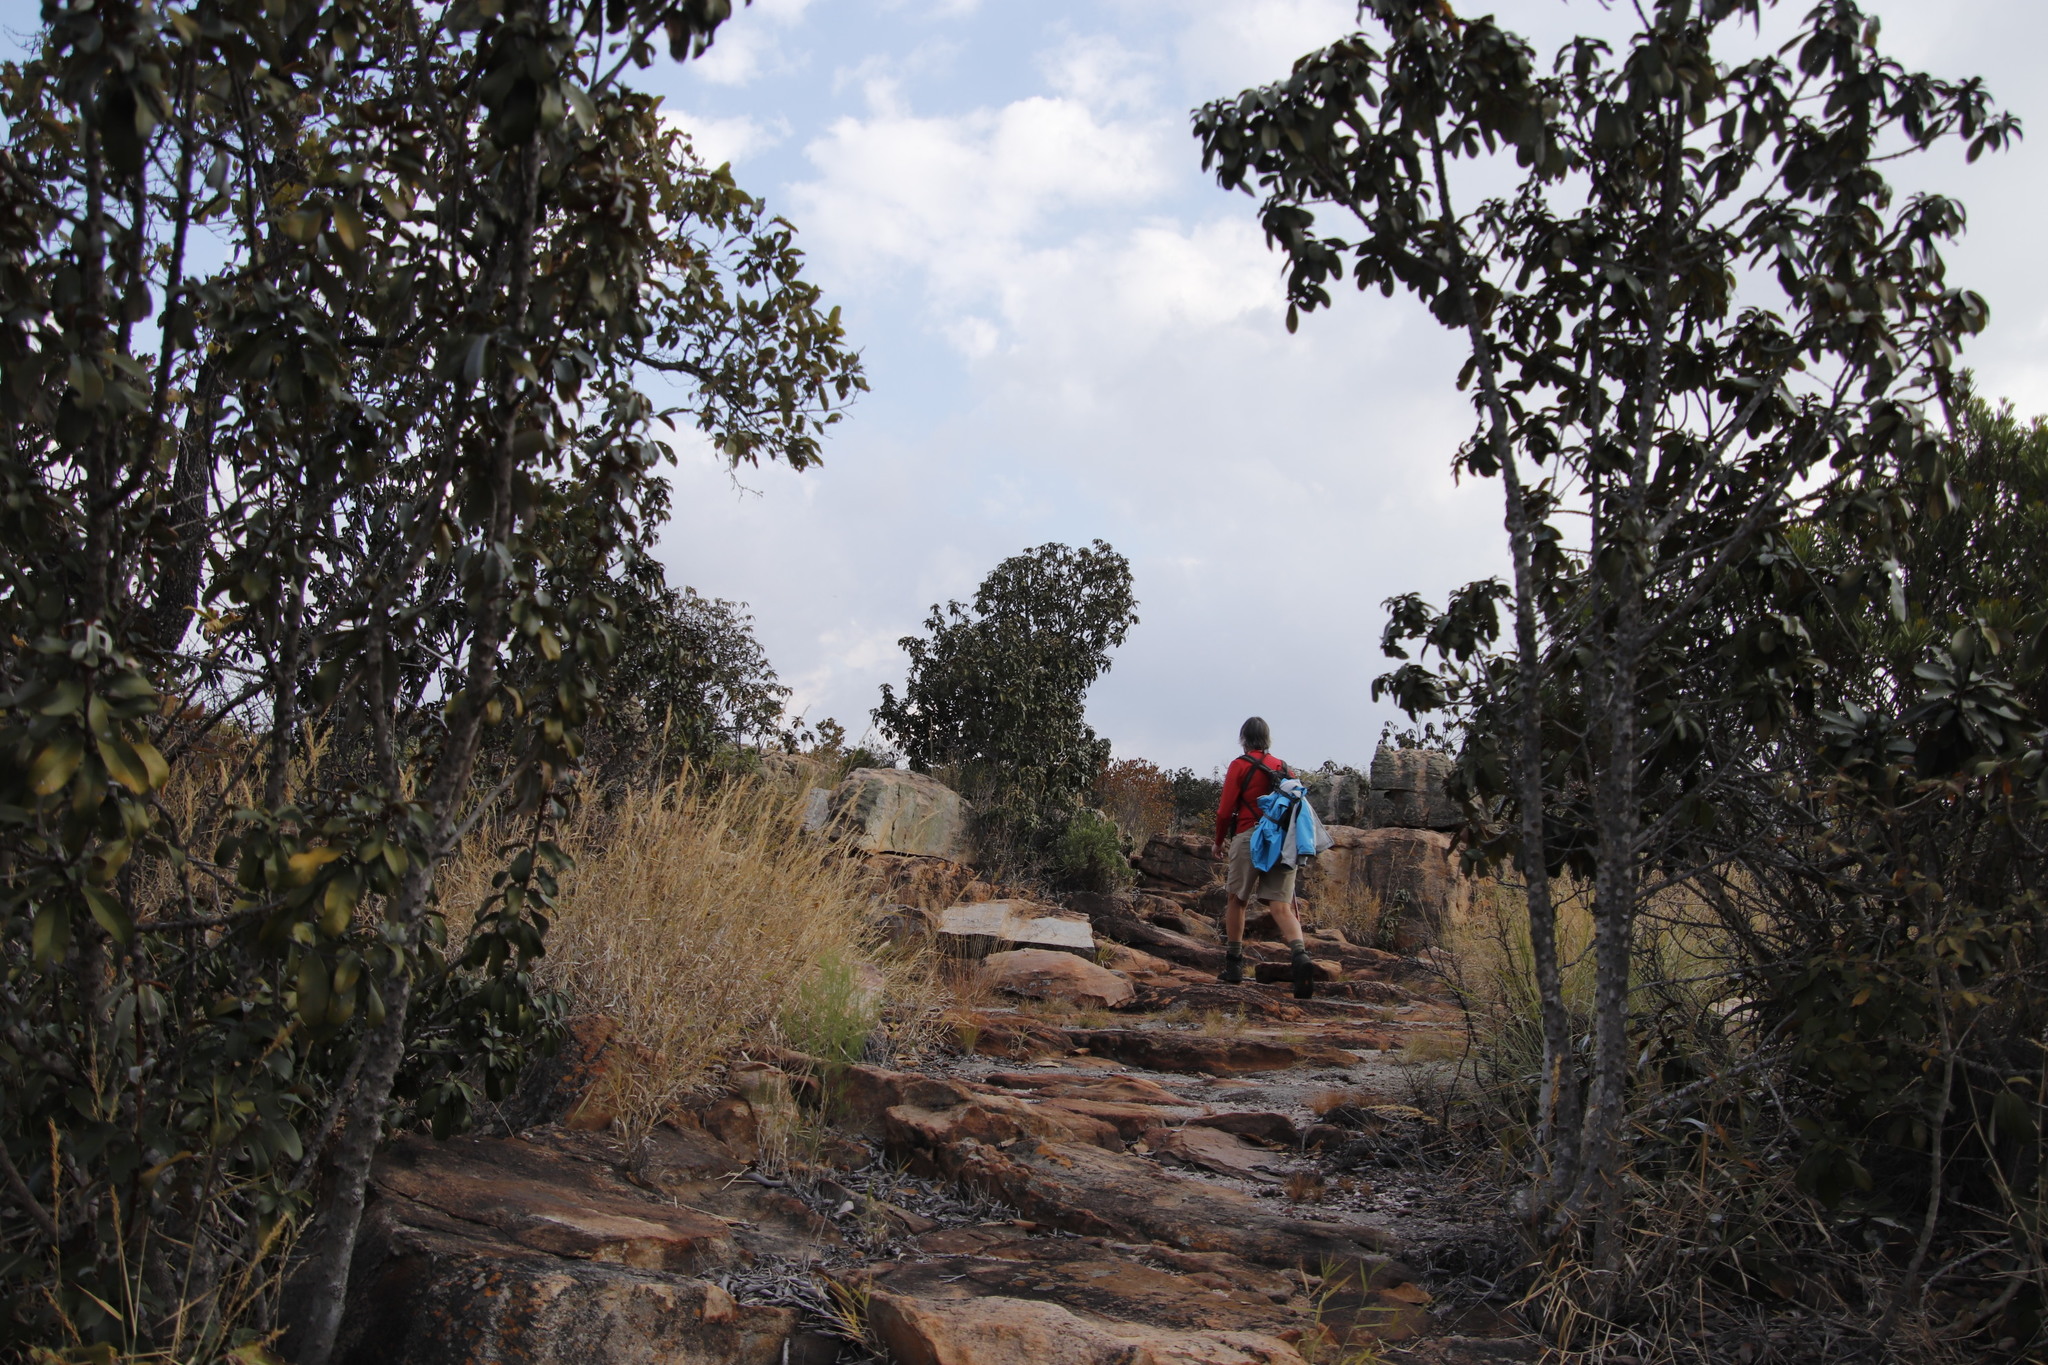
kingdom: Plantae
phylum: Tracheophyta
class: Magnoliopsida
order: Ericales
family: Sapotaceae
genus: Englerophytum
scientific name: Englerophytum magalismontanum
